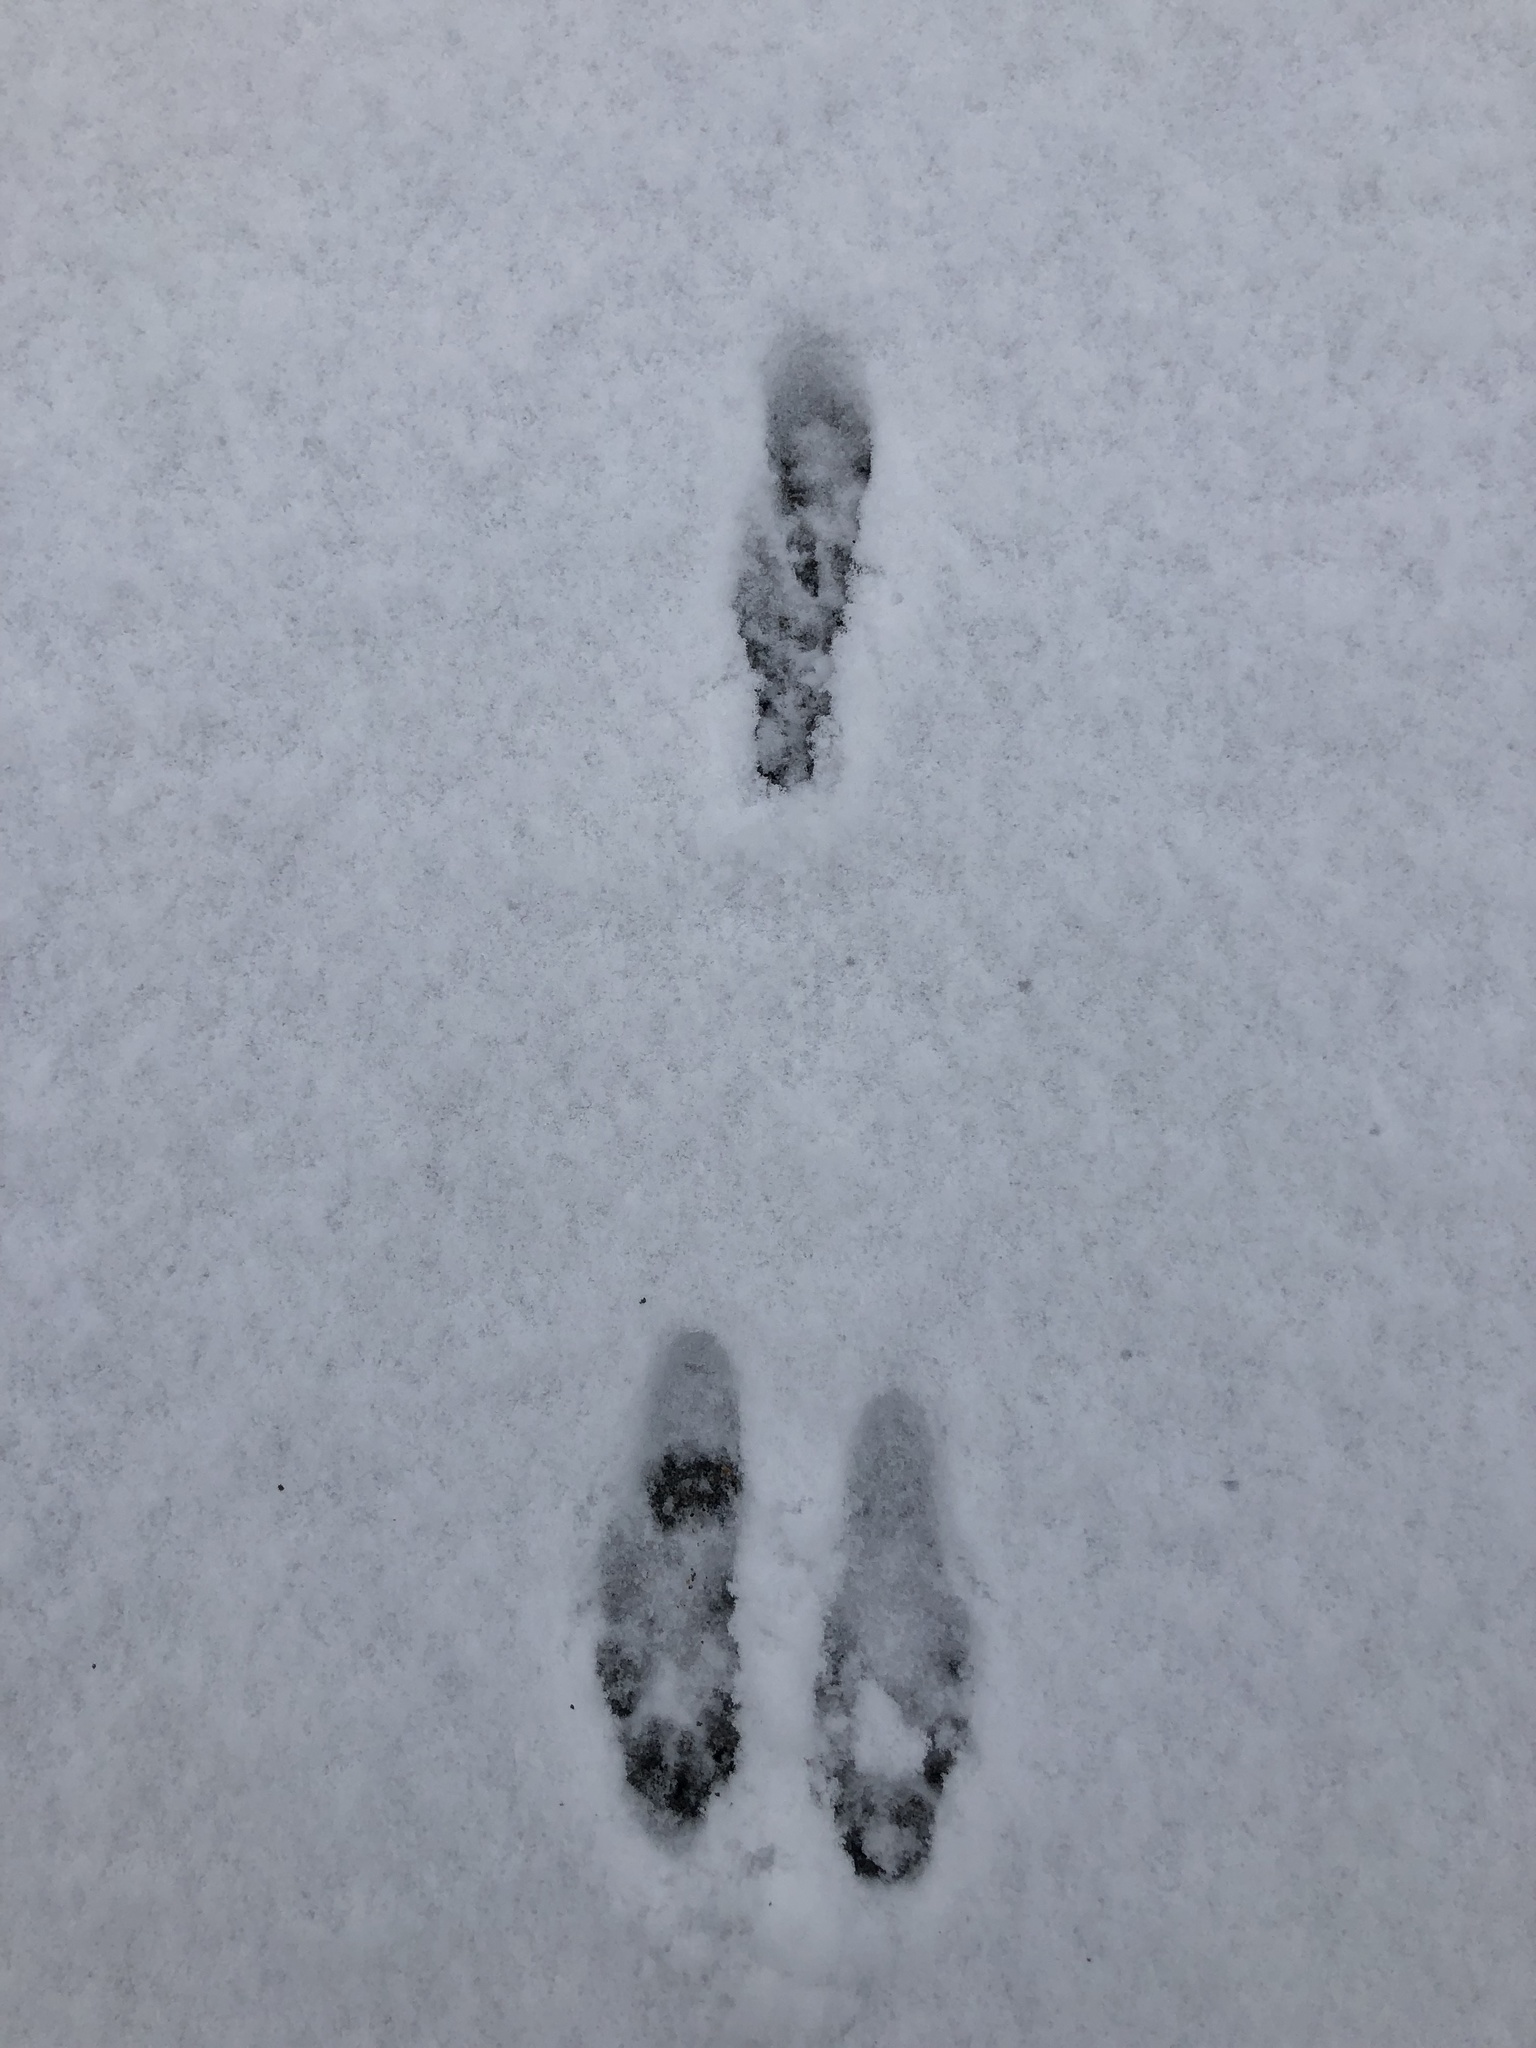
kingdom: Animalia
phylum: Chordata
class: Mammalia
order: Lagomorpha
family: Leporidae
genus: Sylvilagus
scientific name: Sylvilagus floridanus
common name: Eastern cottontail
